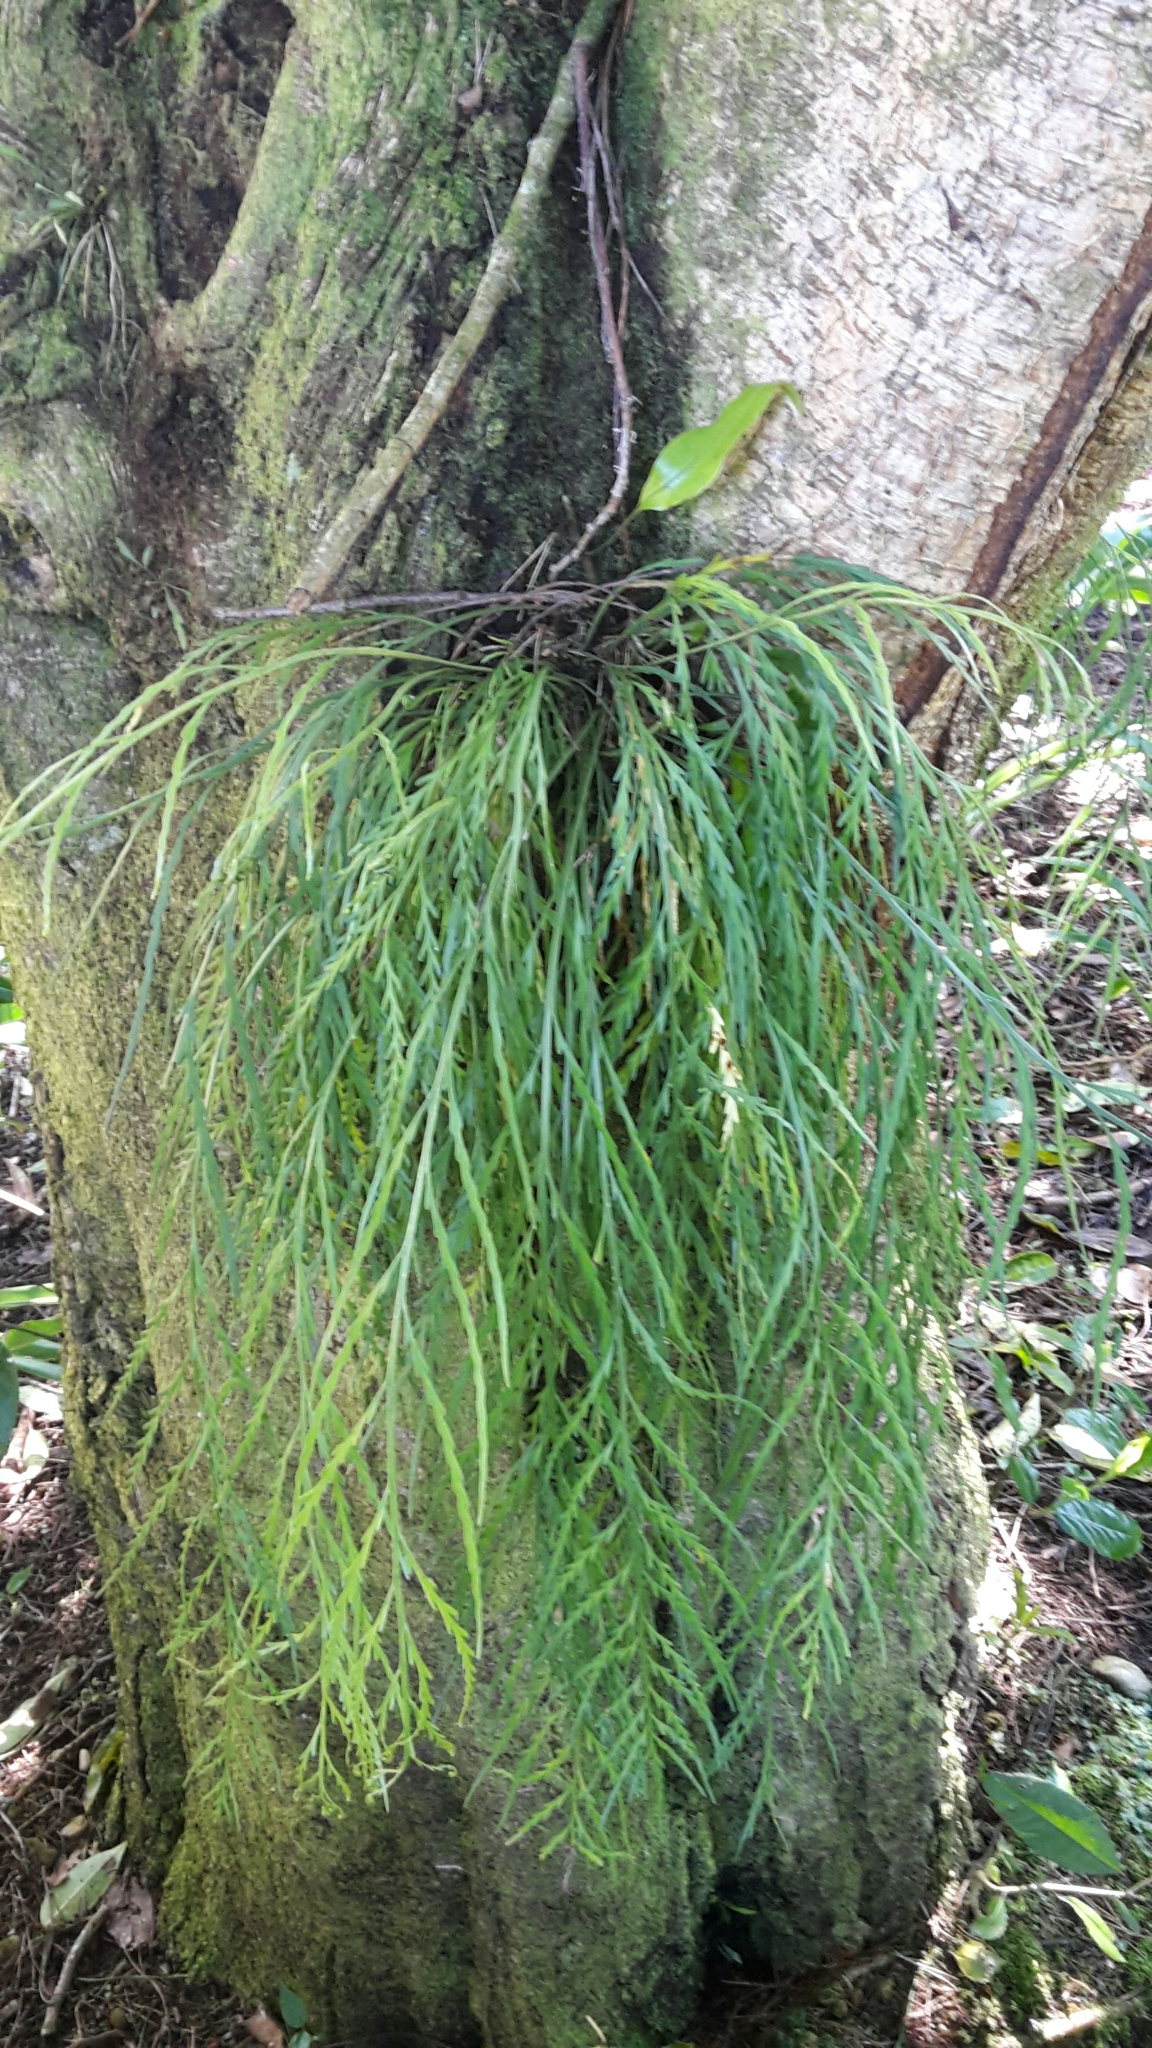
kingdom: Plantae
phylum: Tracheophyta
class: Polypodiopsida
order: Polypodiales
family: Aspleniaceae
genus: Asplenium
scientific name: Asplenium flaccidum
